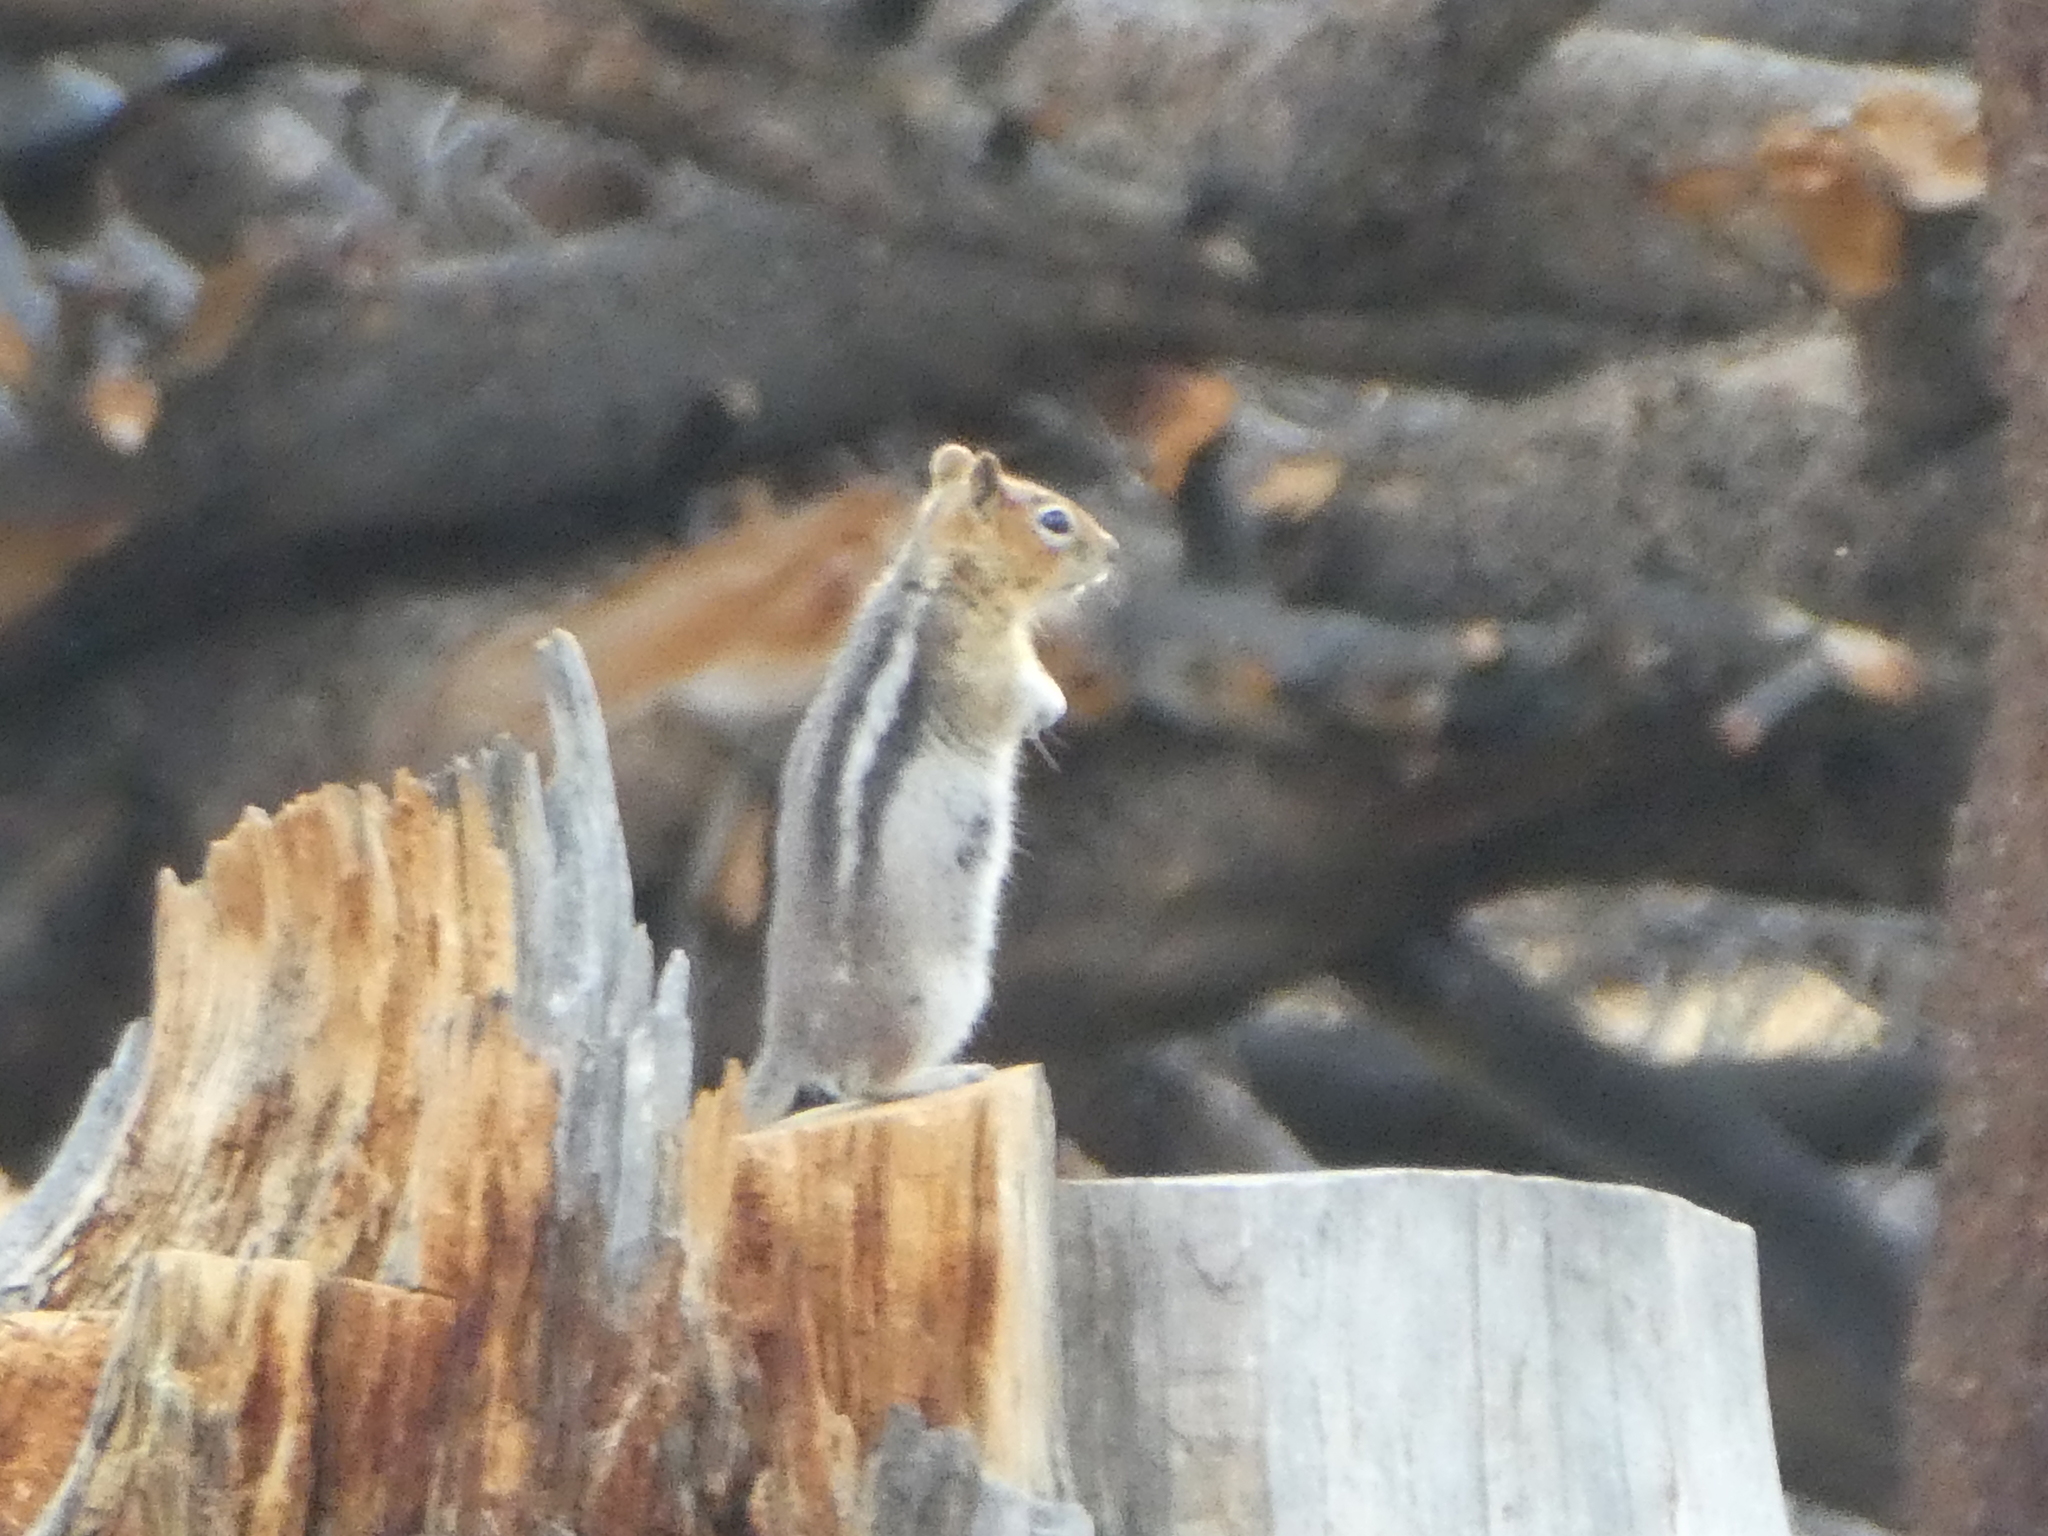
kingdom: Animalia
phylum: Chordata
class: Mammalia
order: Rodentia
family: Sciuridae
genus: Callospermophilus
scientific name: Callospermophilus lateralis
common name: Golden-mantled ground squirrel
